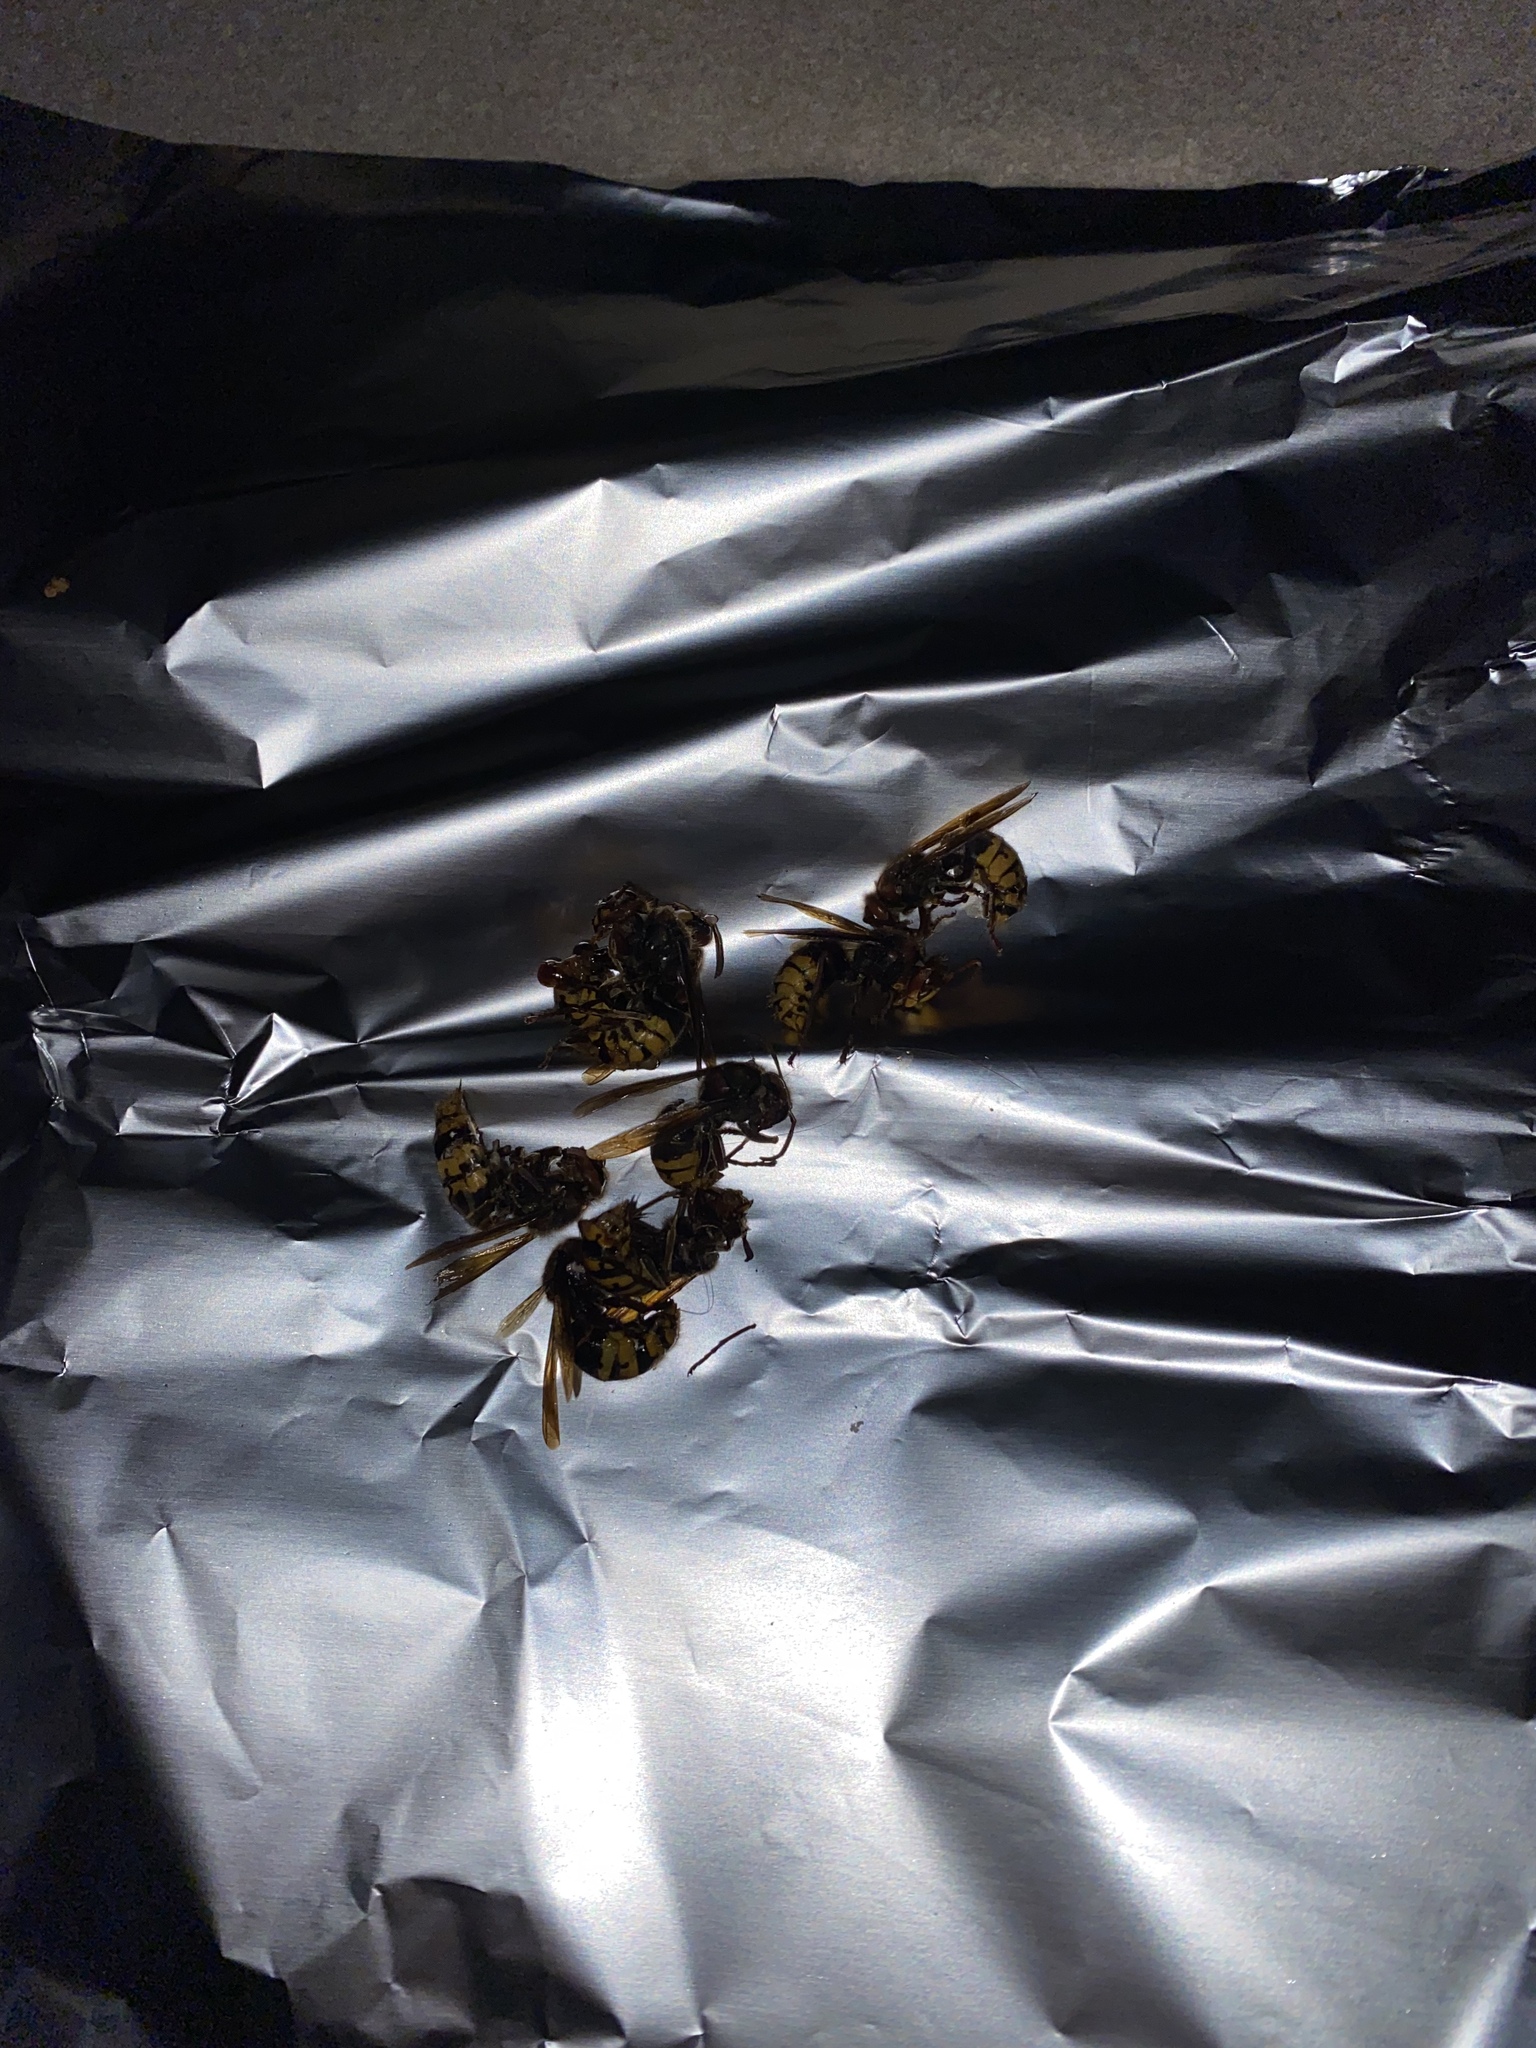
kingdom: Animalia
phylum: Arthropoda
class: Insecta
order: Hymenoptera
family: Vespidae
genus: Vespa
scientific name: Vespa crabro
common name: Hornet
